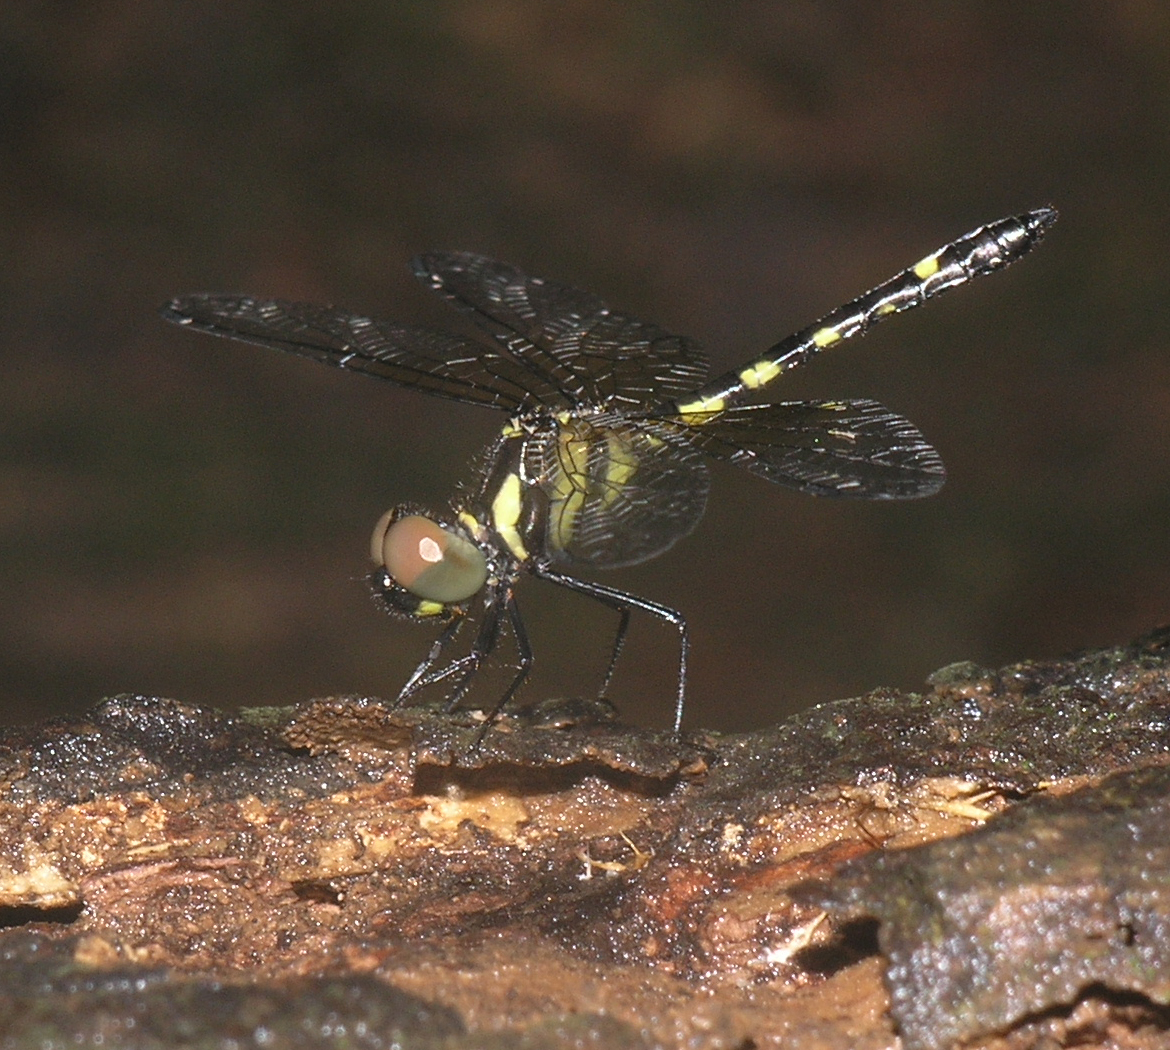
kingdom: Animalia
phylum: Arthropoda
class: Insecta
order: Odonata
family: Libellulidae
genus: Tetrathemis
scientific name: Tetrathemis platyptera
